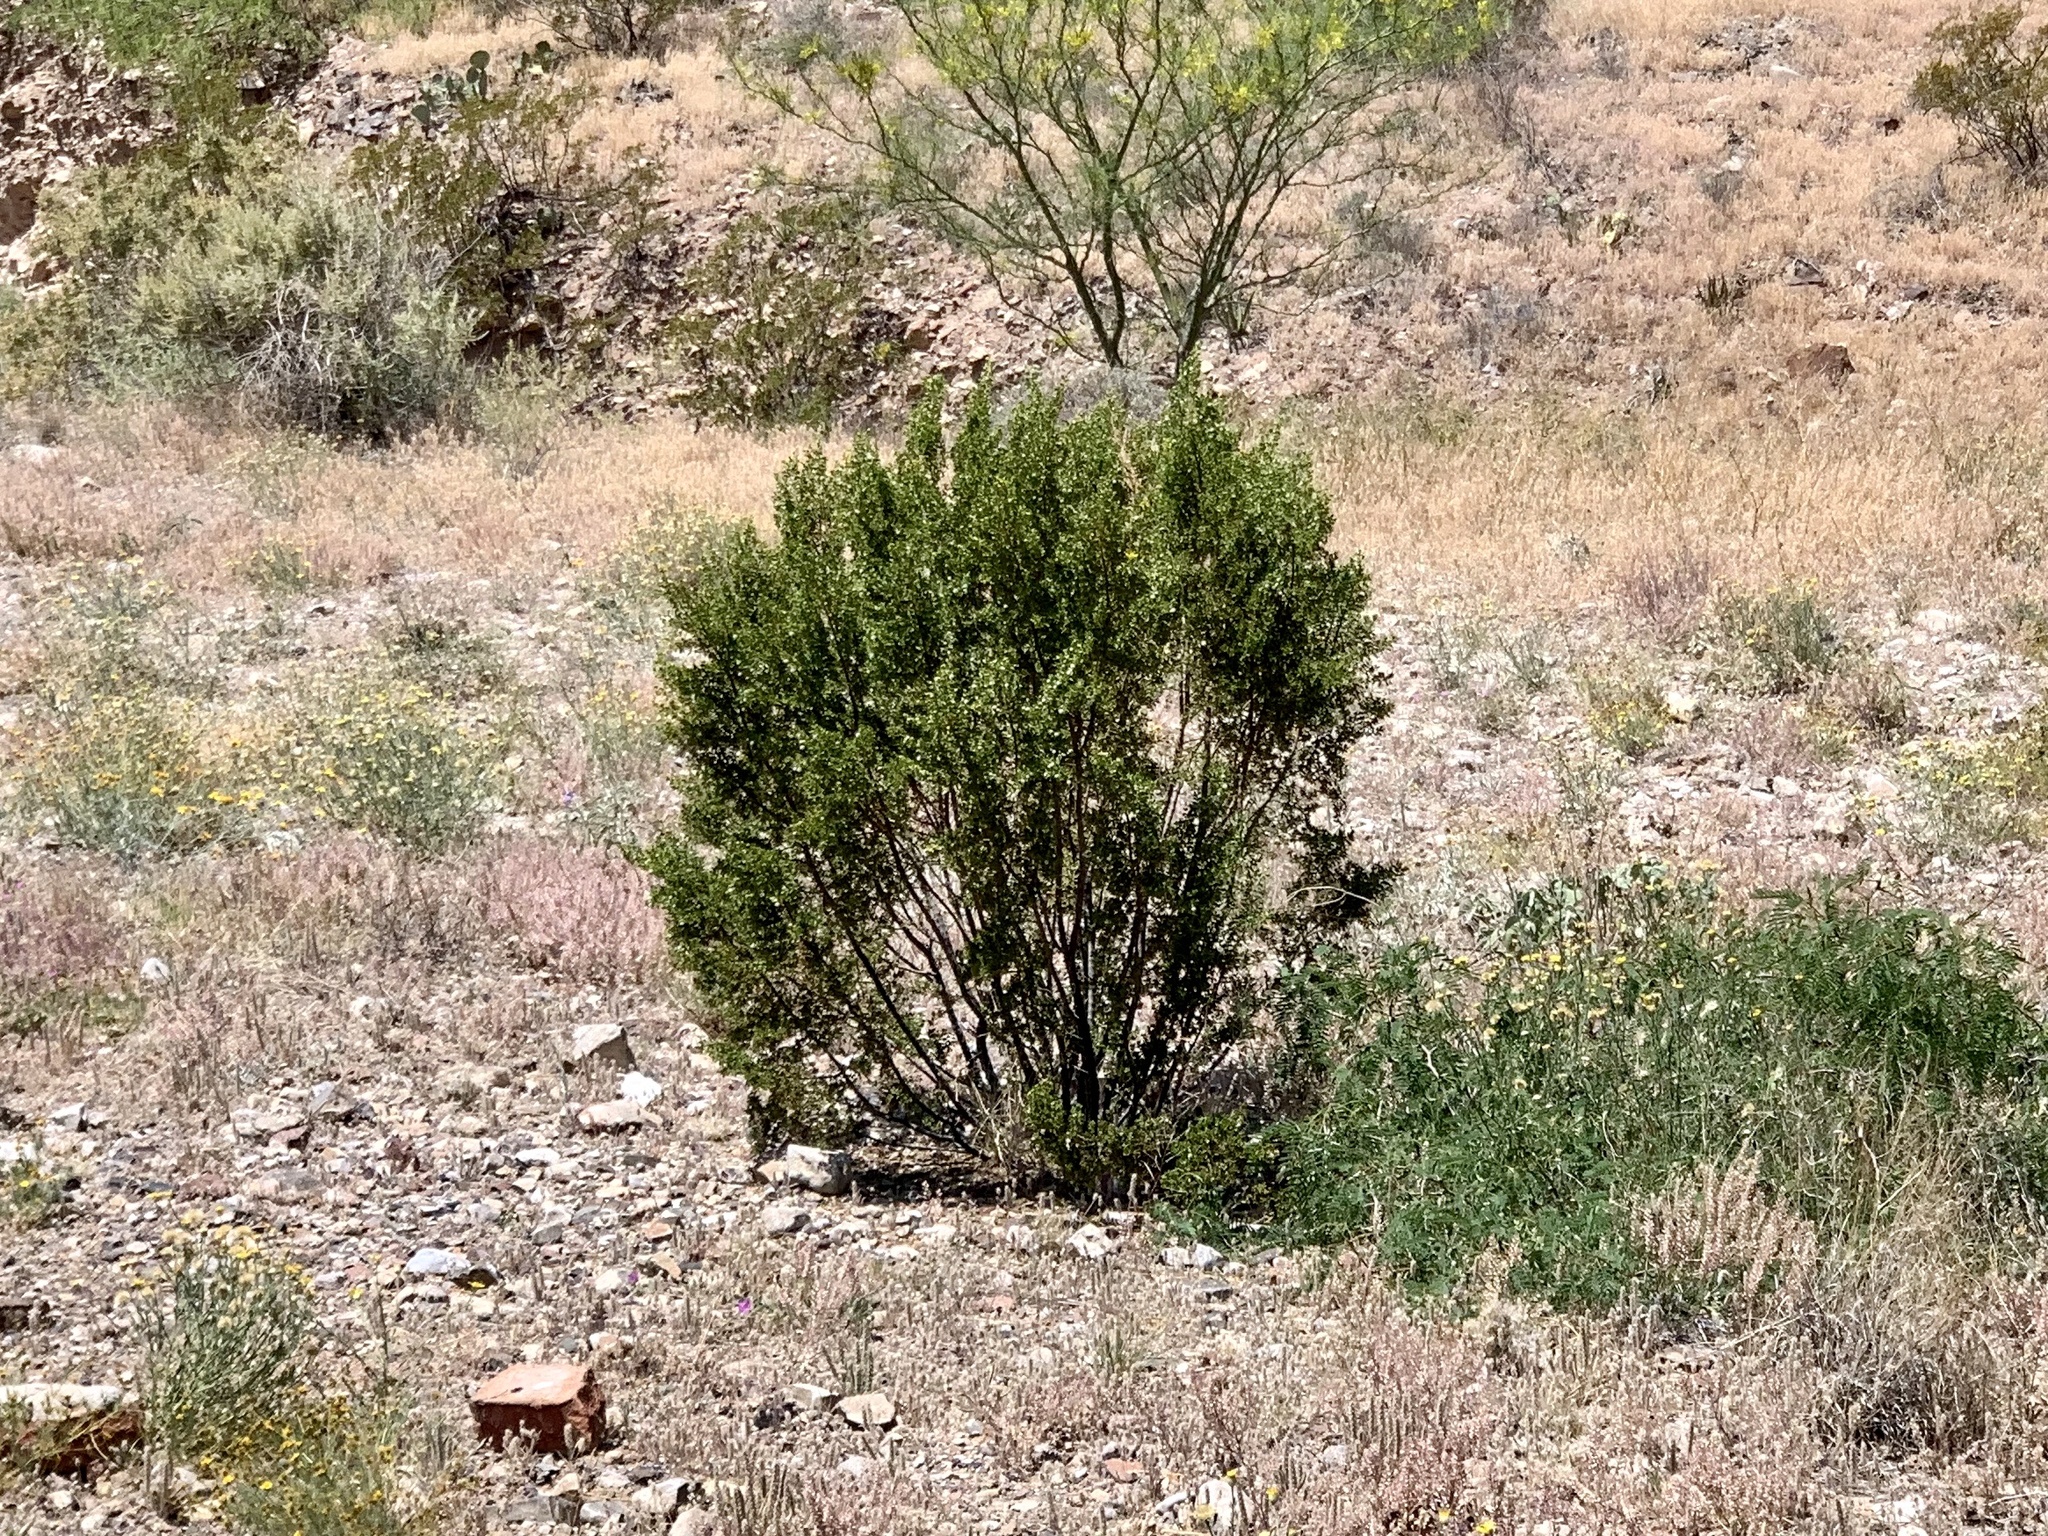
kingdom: Plantae
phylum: Tracheophyta
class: Magnoliopsida
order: Zygophyllales
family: Zygophyllaceae
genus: Larrea
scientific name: Larrea tridentata
